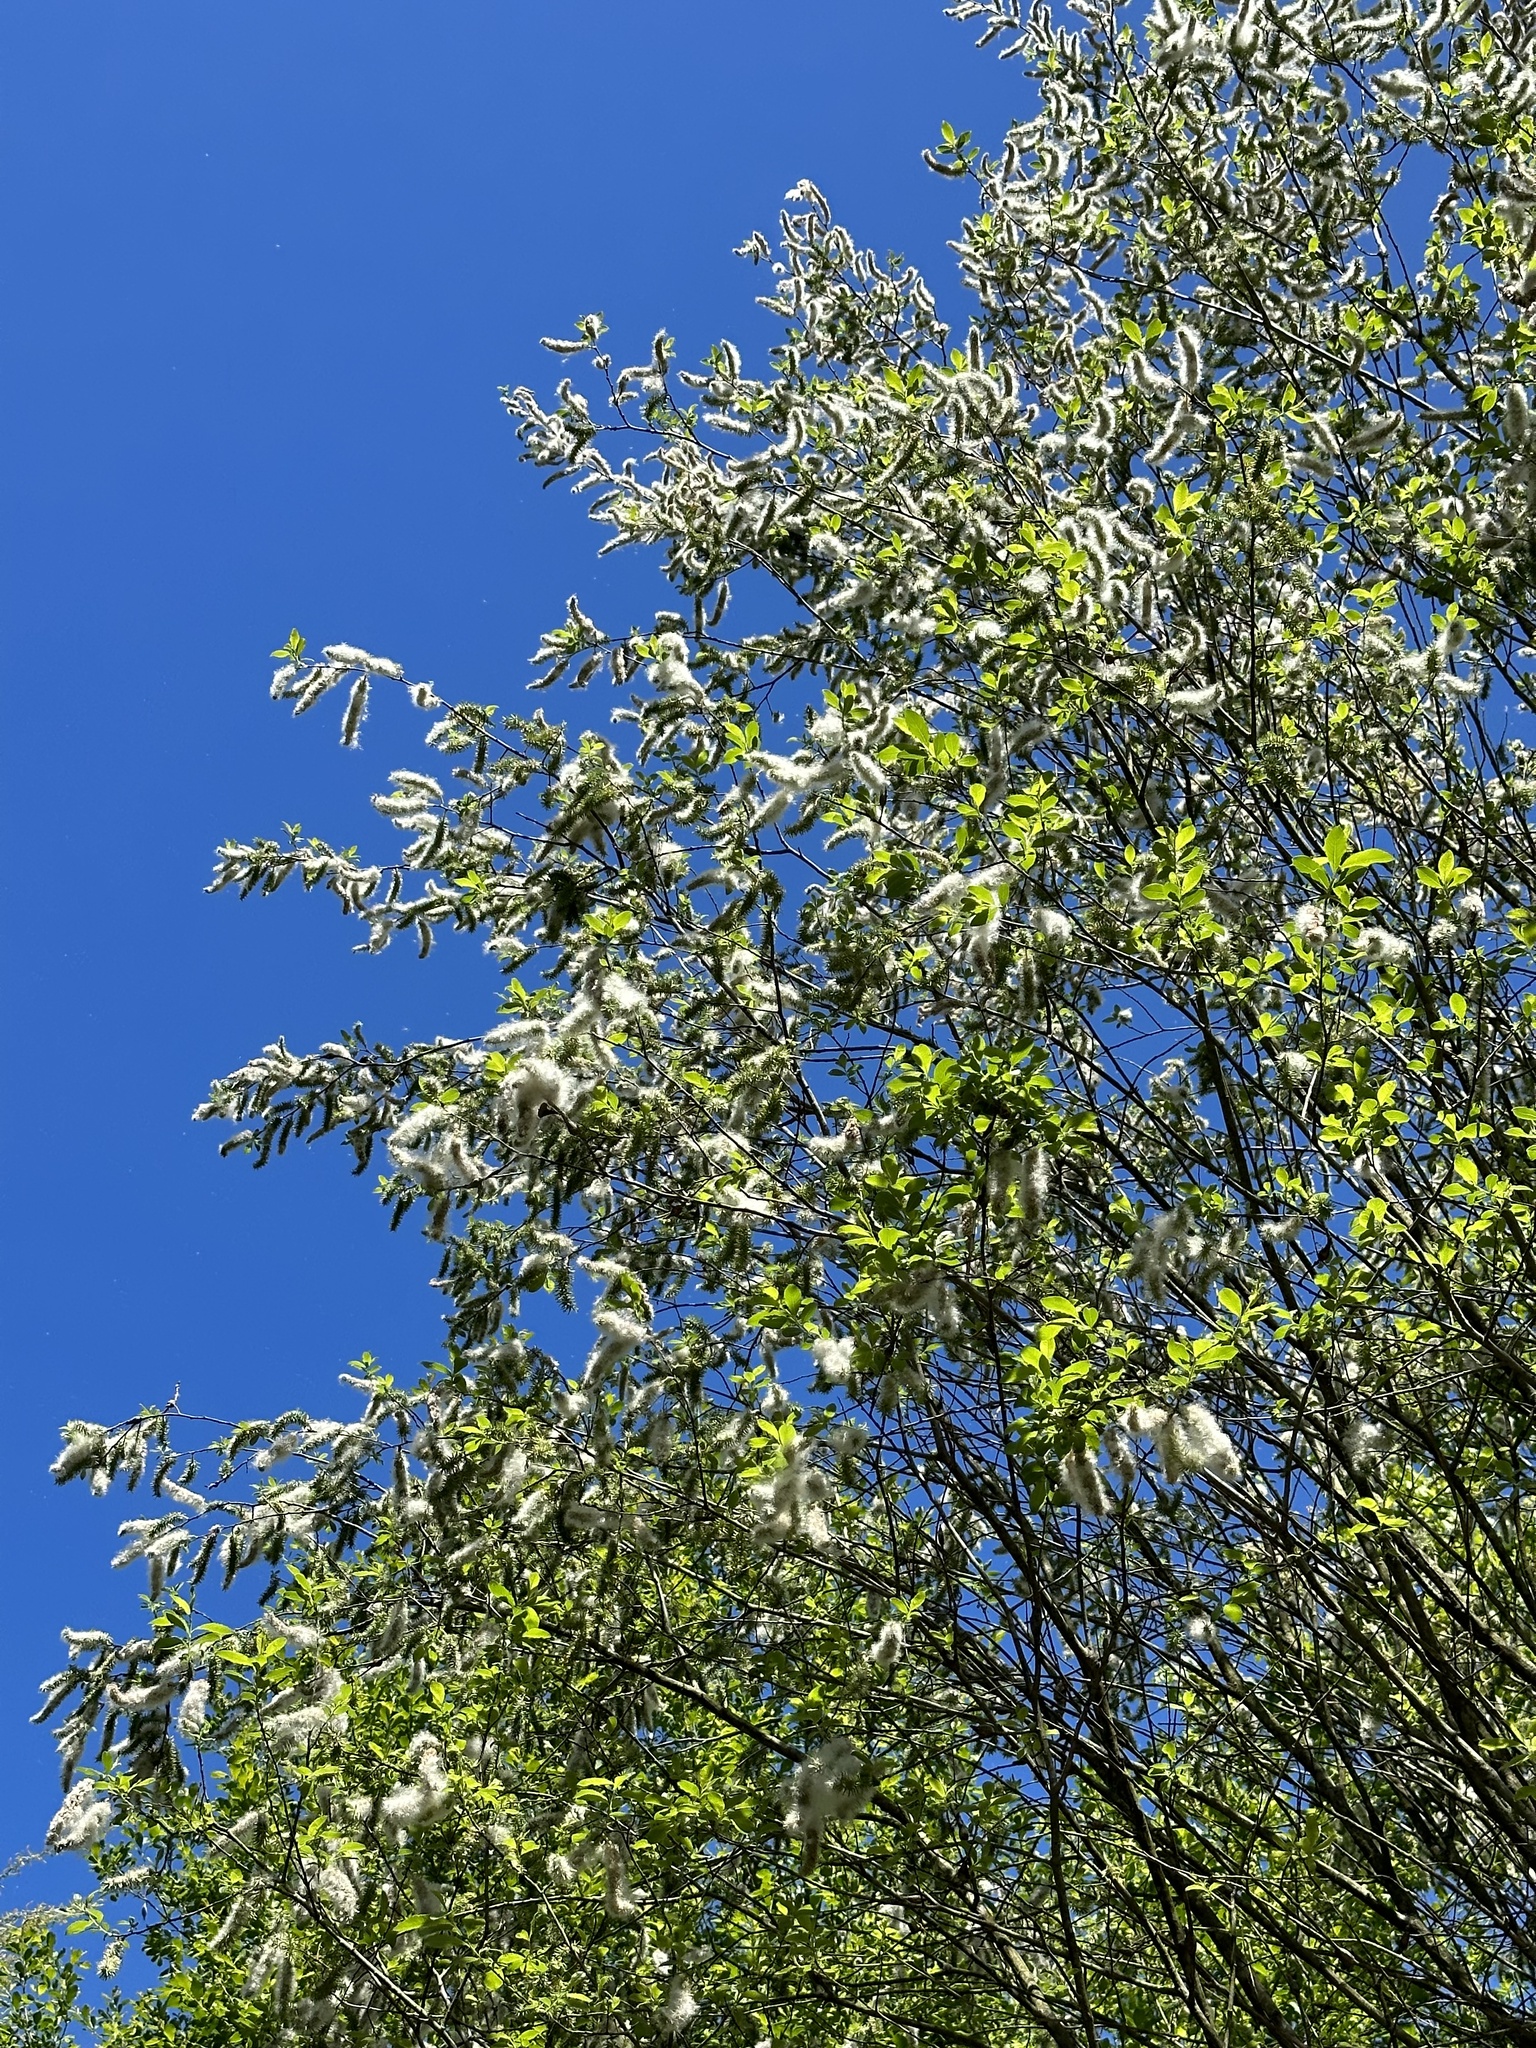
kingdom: Plantae
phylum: Tracheophyta
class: Magnoliopsida
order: Malpighiales
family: Salicaceae
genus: Salix
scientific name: Salix discolor
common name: Glaucous willow
